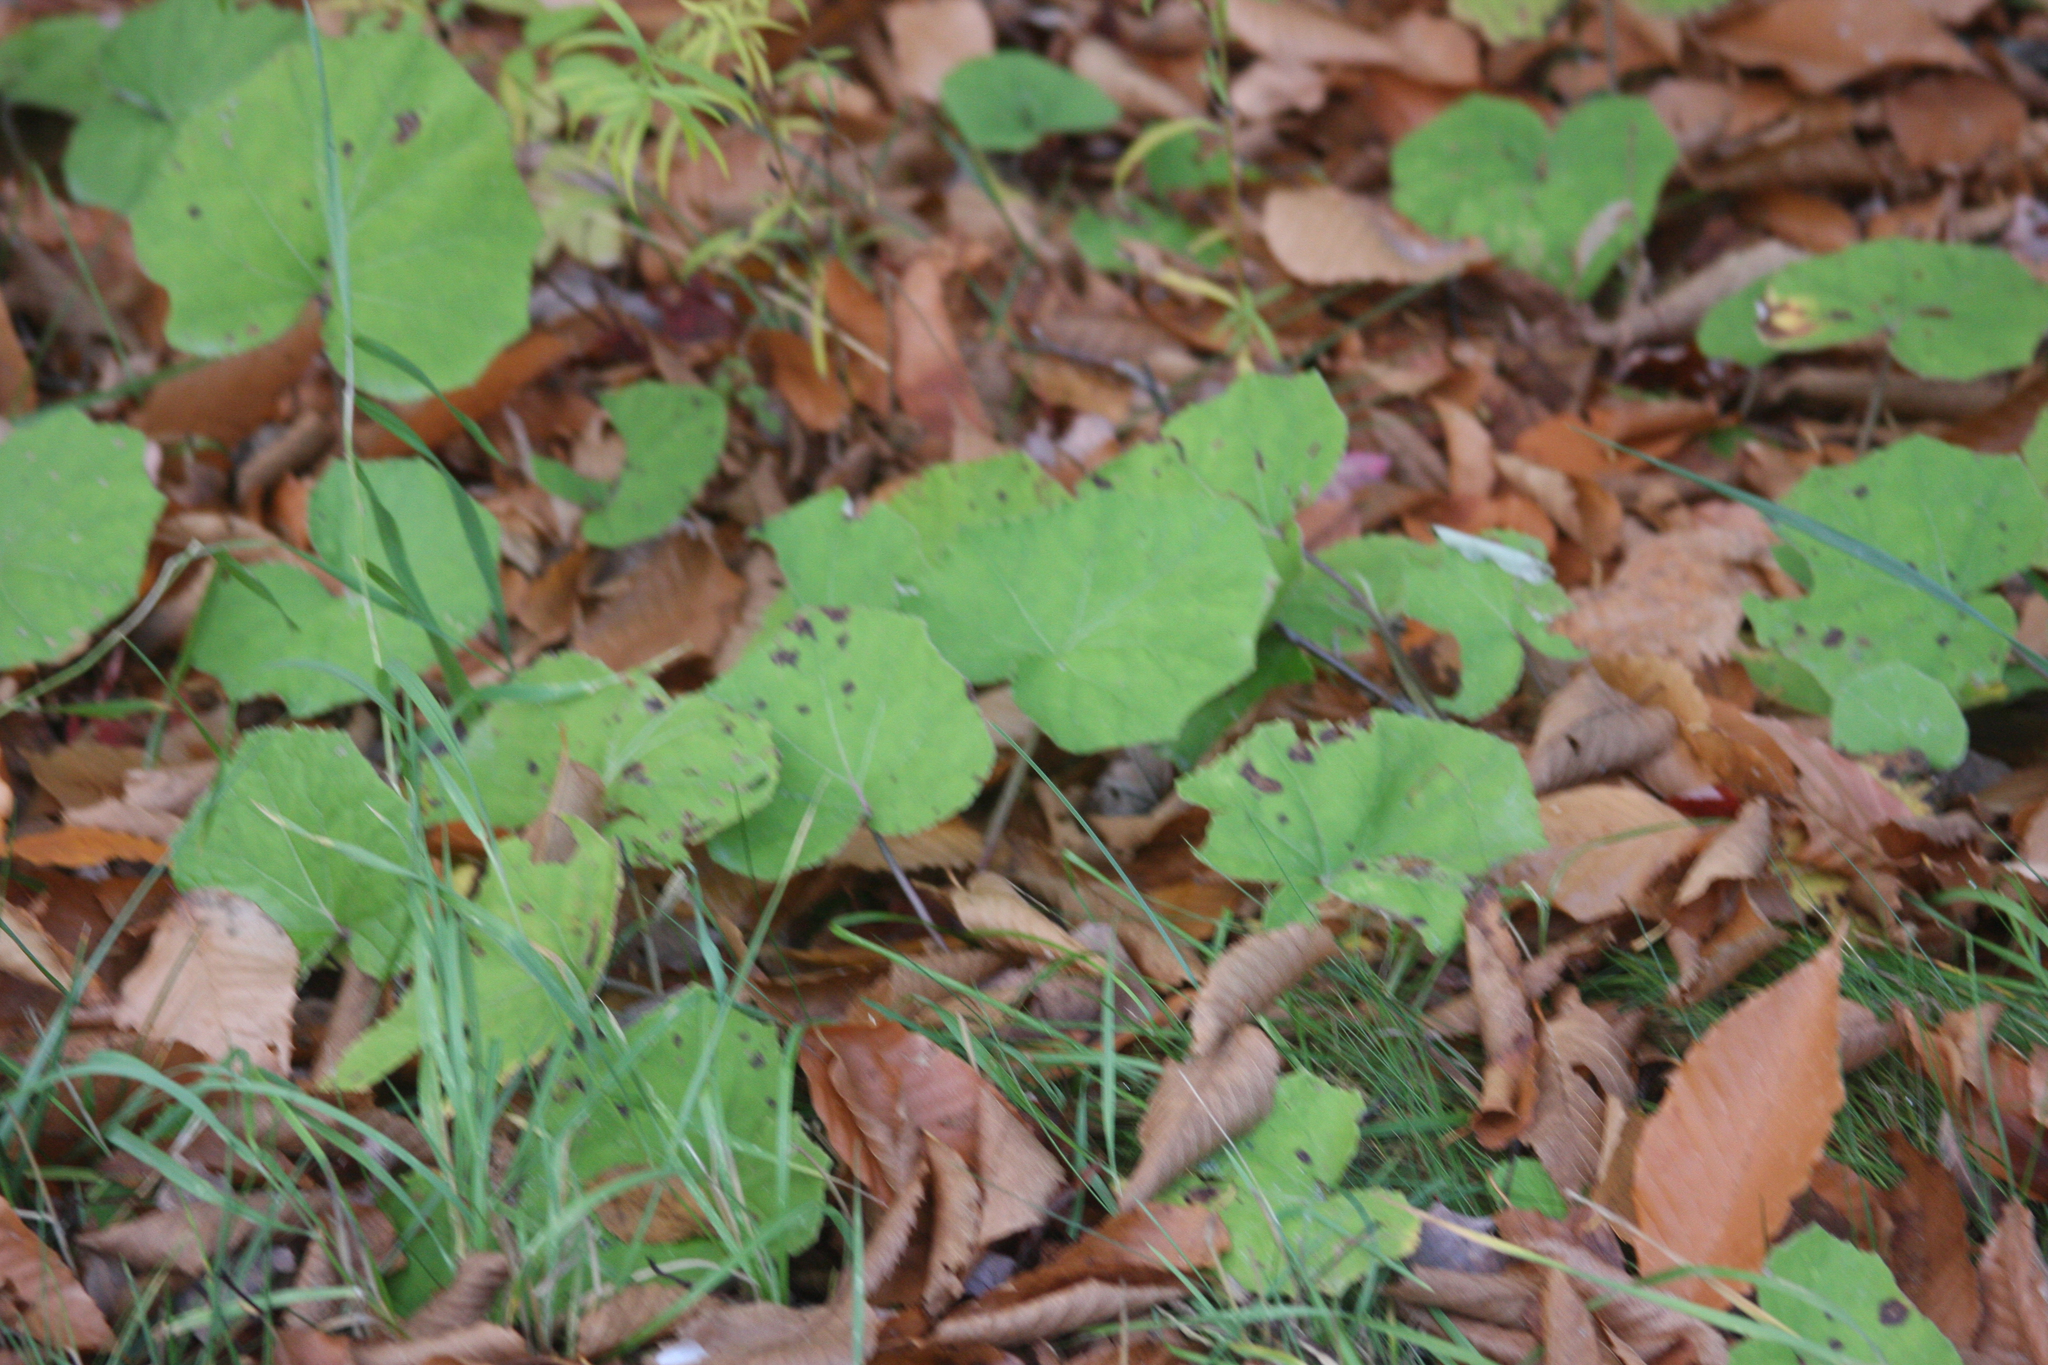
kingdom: Plantae
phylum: Tracheophyta
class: Magnoliopsida
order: Asterales
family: Asteraceae
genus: Tussilago
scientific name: Tussilago farfara
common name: Coltsfoot
